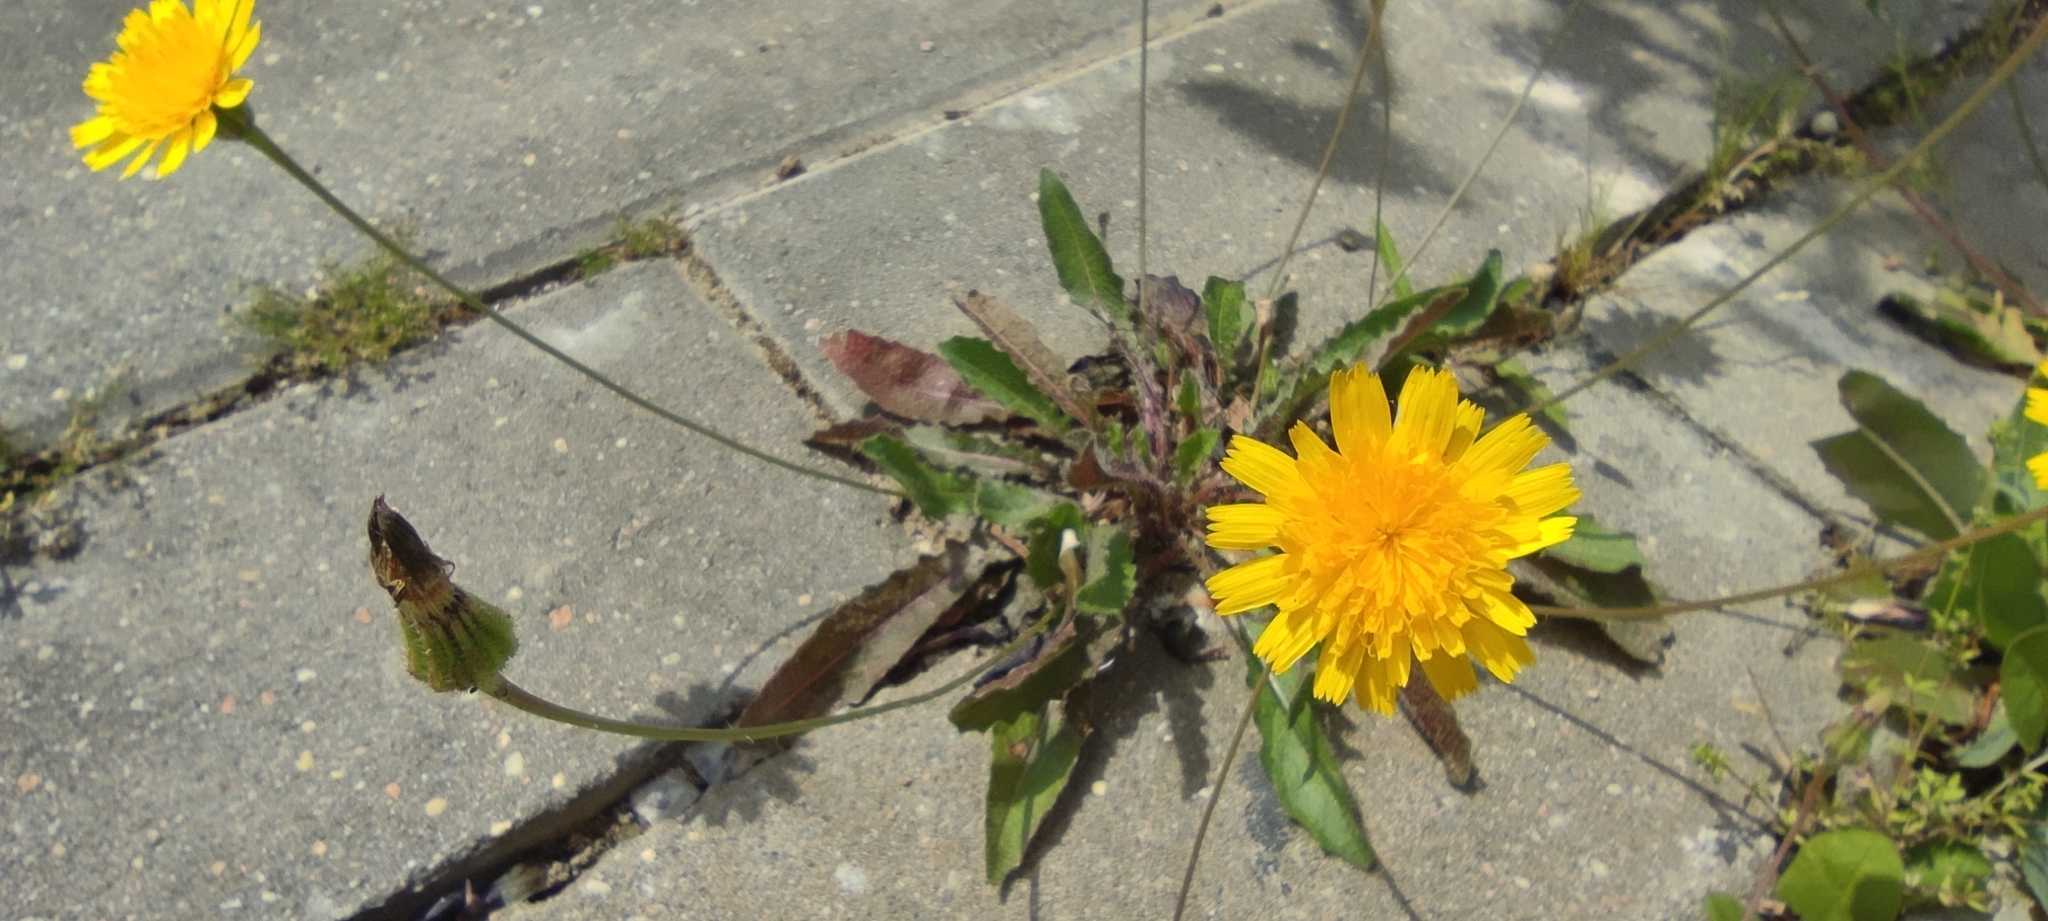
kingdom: Plantae
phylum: Tracheophyta
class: Magnoliopsida
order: Asterales
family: Asteraceae
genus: Thrincia
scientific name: Thrincia hispida
